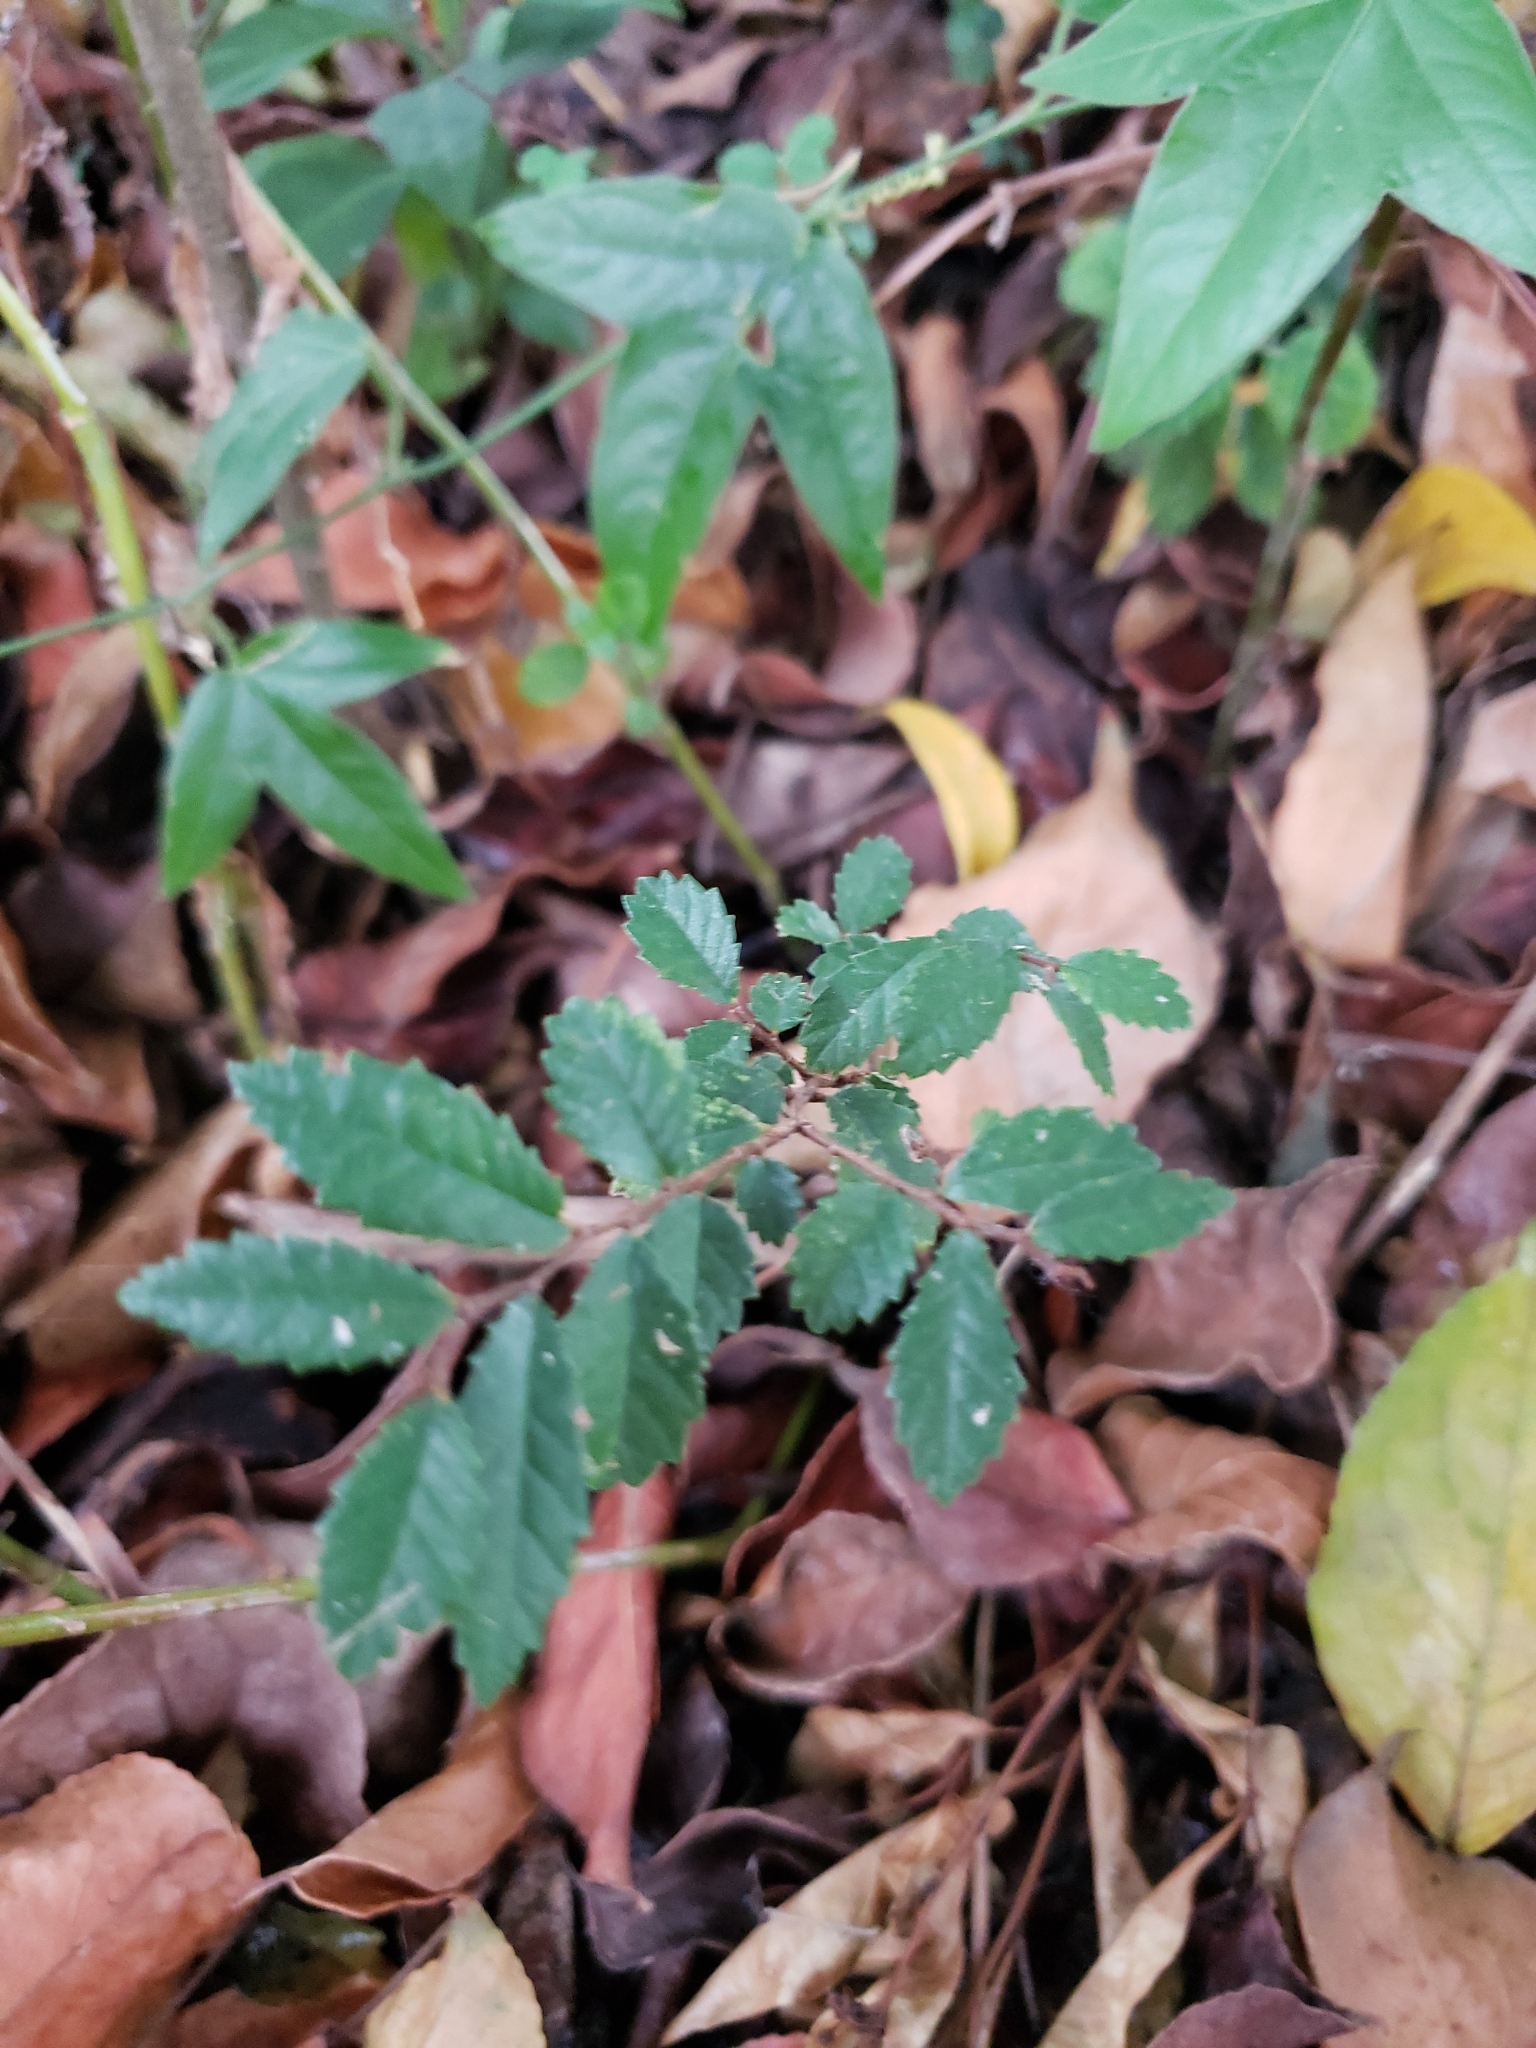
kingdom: Plantae
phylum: Tracheophyta
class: Magnoliopsida
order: Rosales
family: Ulmaceae
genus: Ulmus
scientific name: Ulmus parvifolia
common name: Chinese elm
